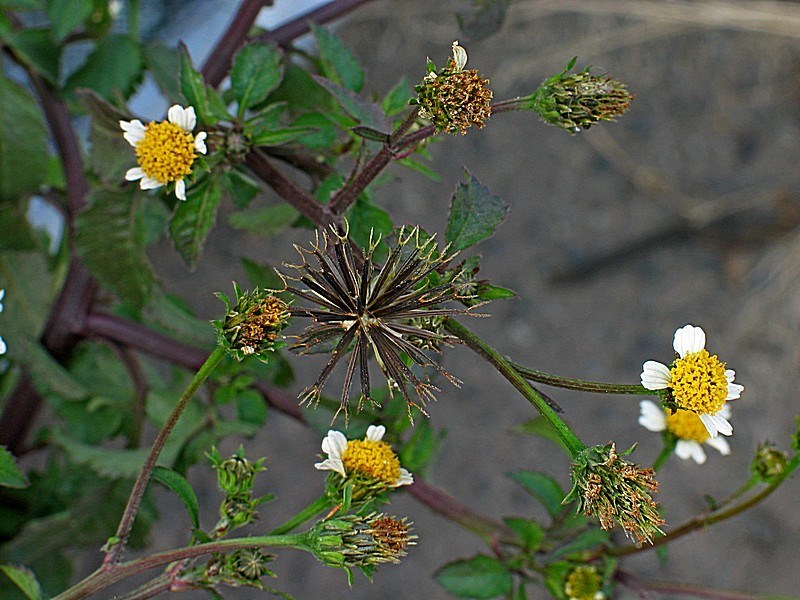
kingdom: Plantae
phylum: Tracheophyta
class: Magnoliopsida
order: Asterales
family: Asteraceae
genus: Bidens
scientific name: Bidens pilosa
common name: Black-jack
